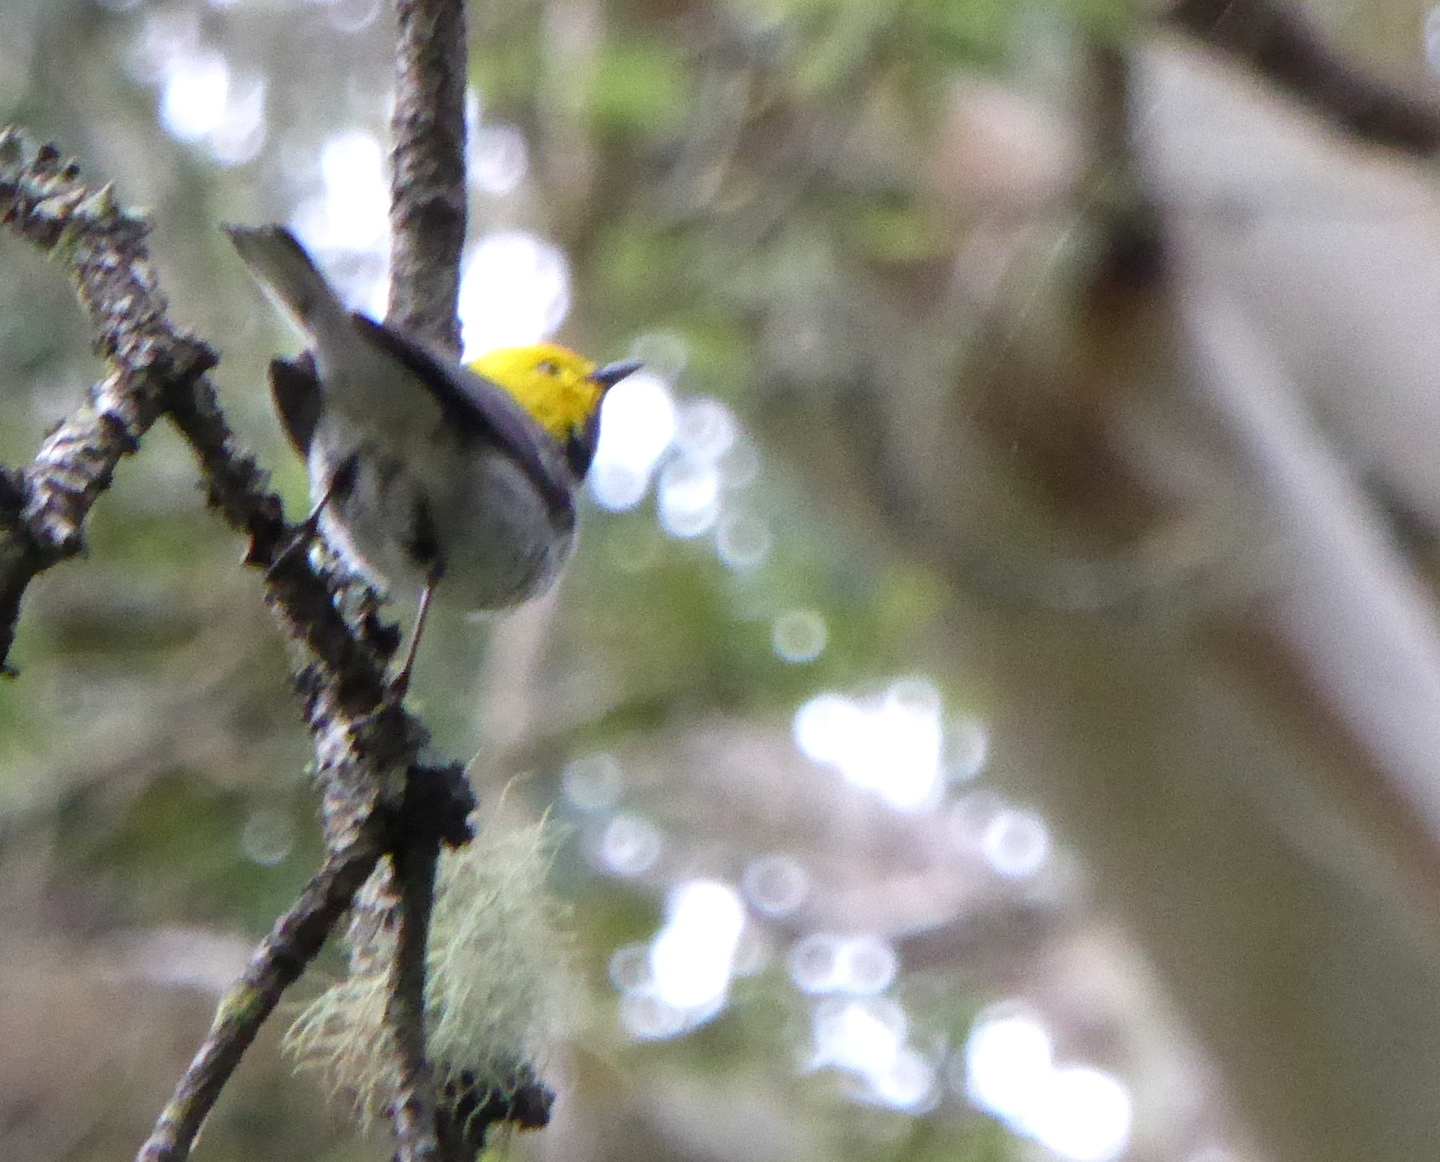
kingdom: Animalia
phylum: Chordata
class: Aves
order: Passeriformes
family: Parulidae
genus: Setophaga
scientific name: Setophaga occidentalis
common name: Hermit warbler
